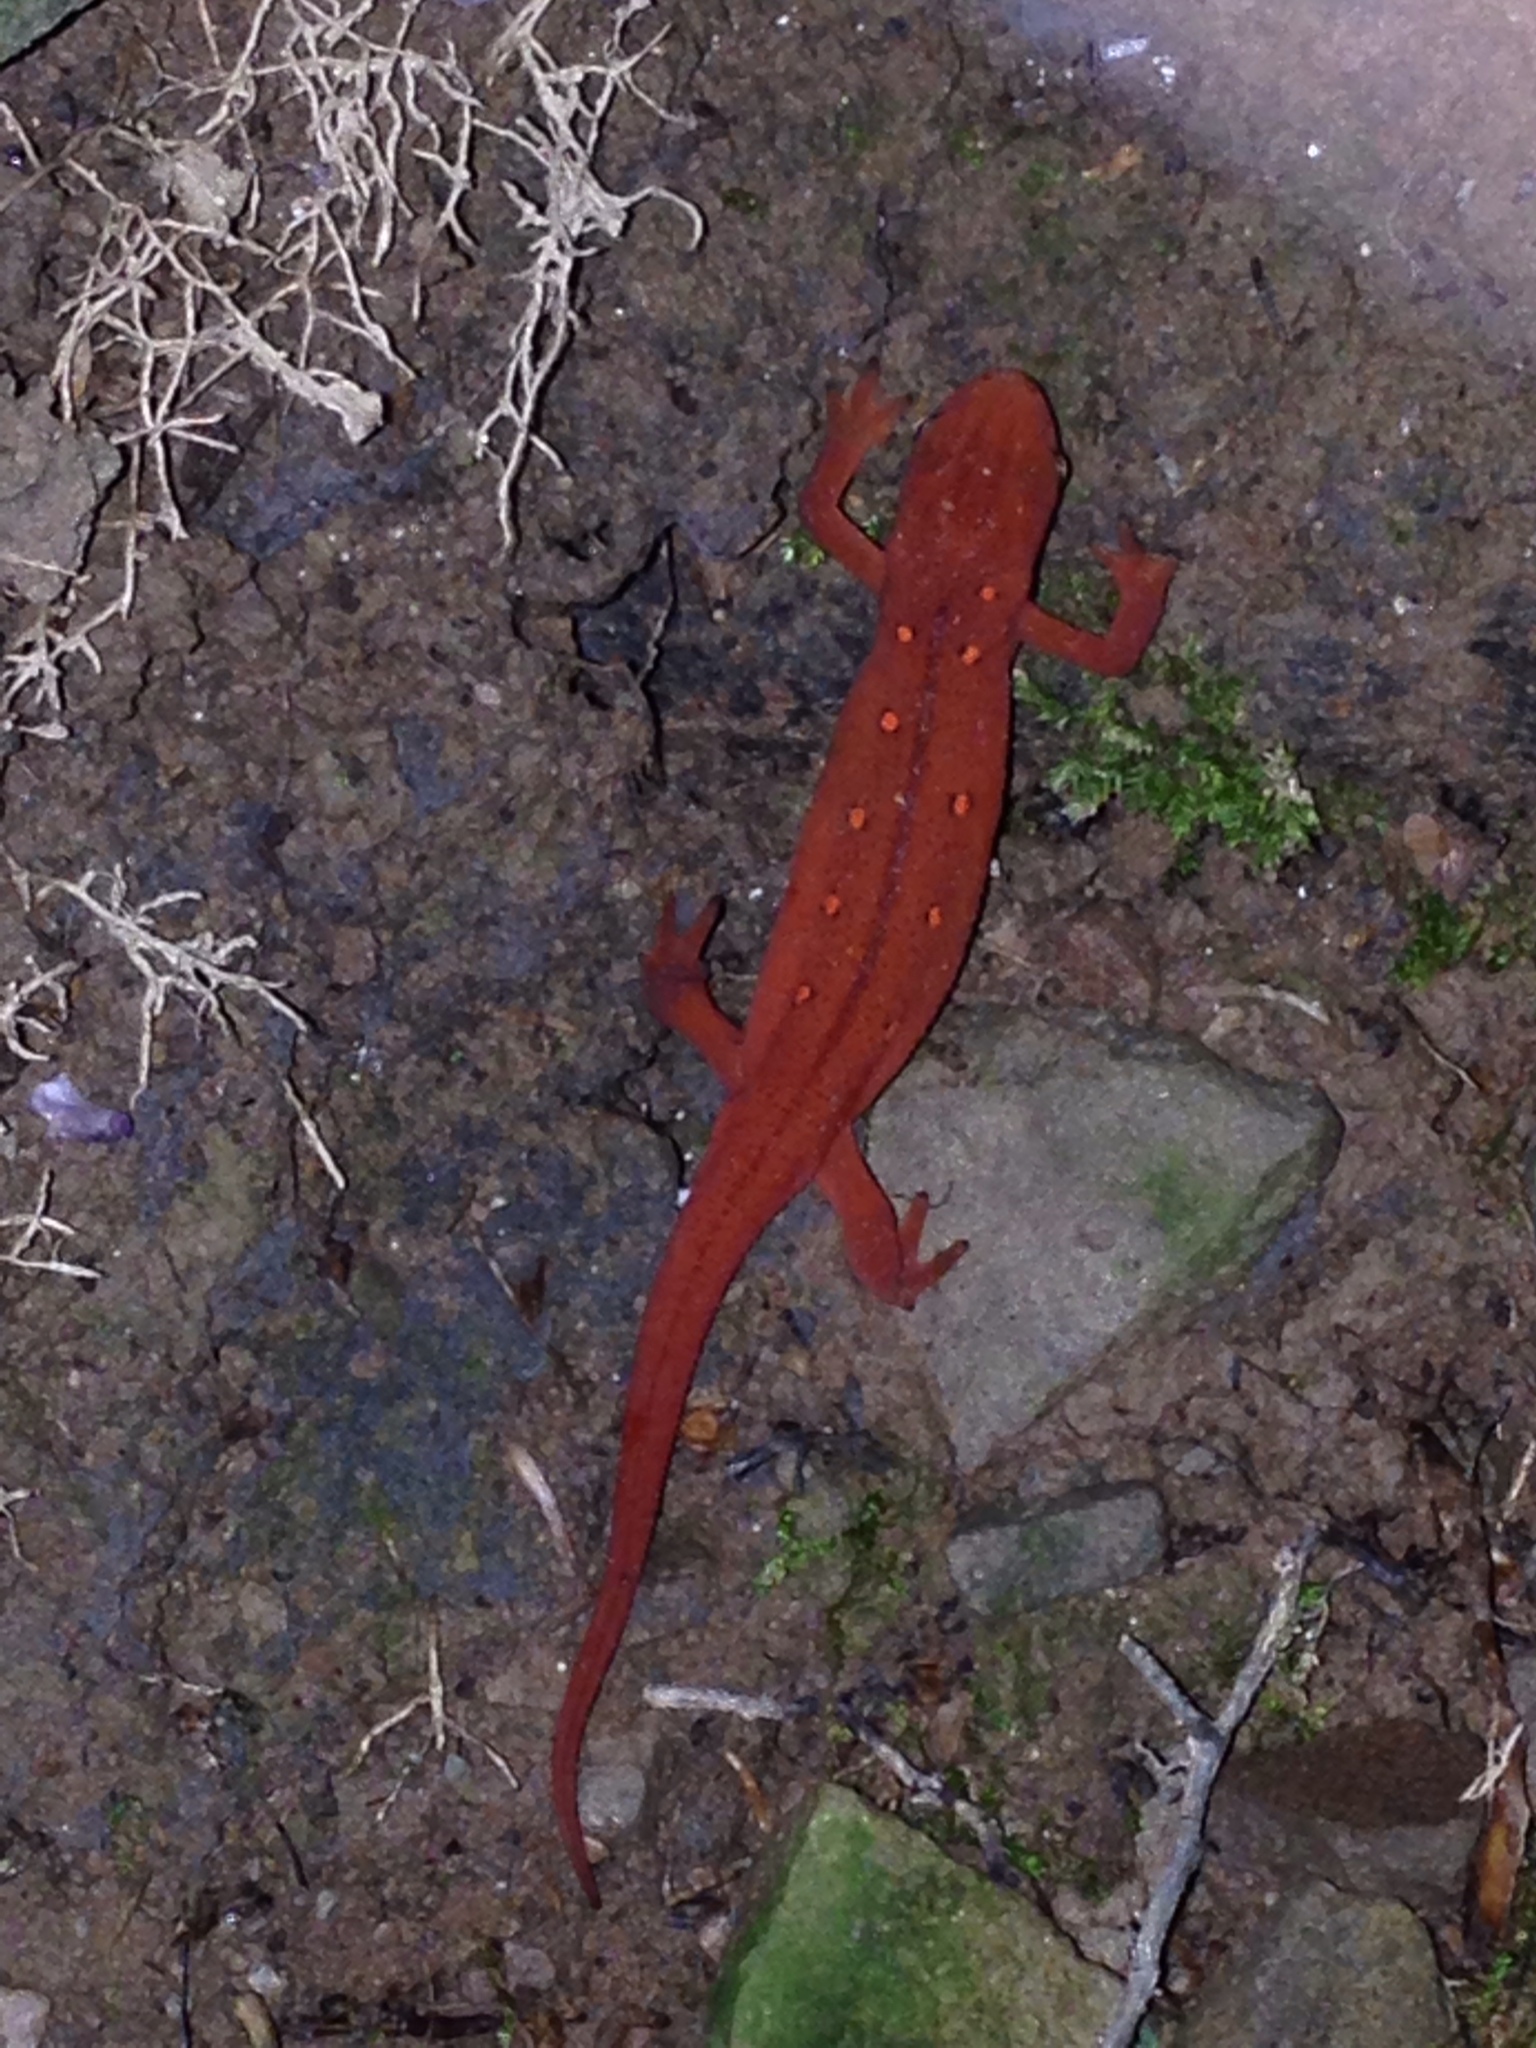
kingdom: Animalia
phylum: Chordata
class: Amphibia
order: Caudata
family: Salamandridae
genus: Notophthalmus
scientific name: Notophthalmus viridescens
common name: Eastern newt
